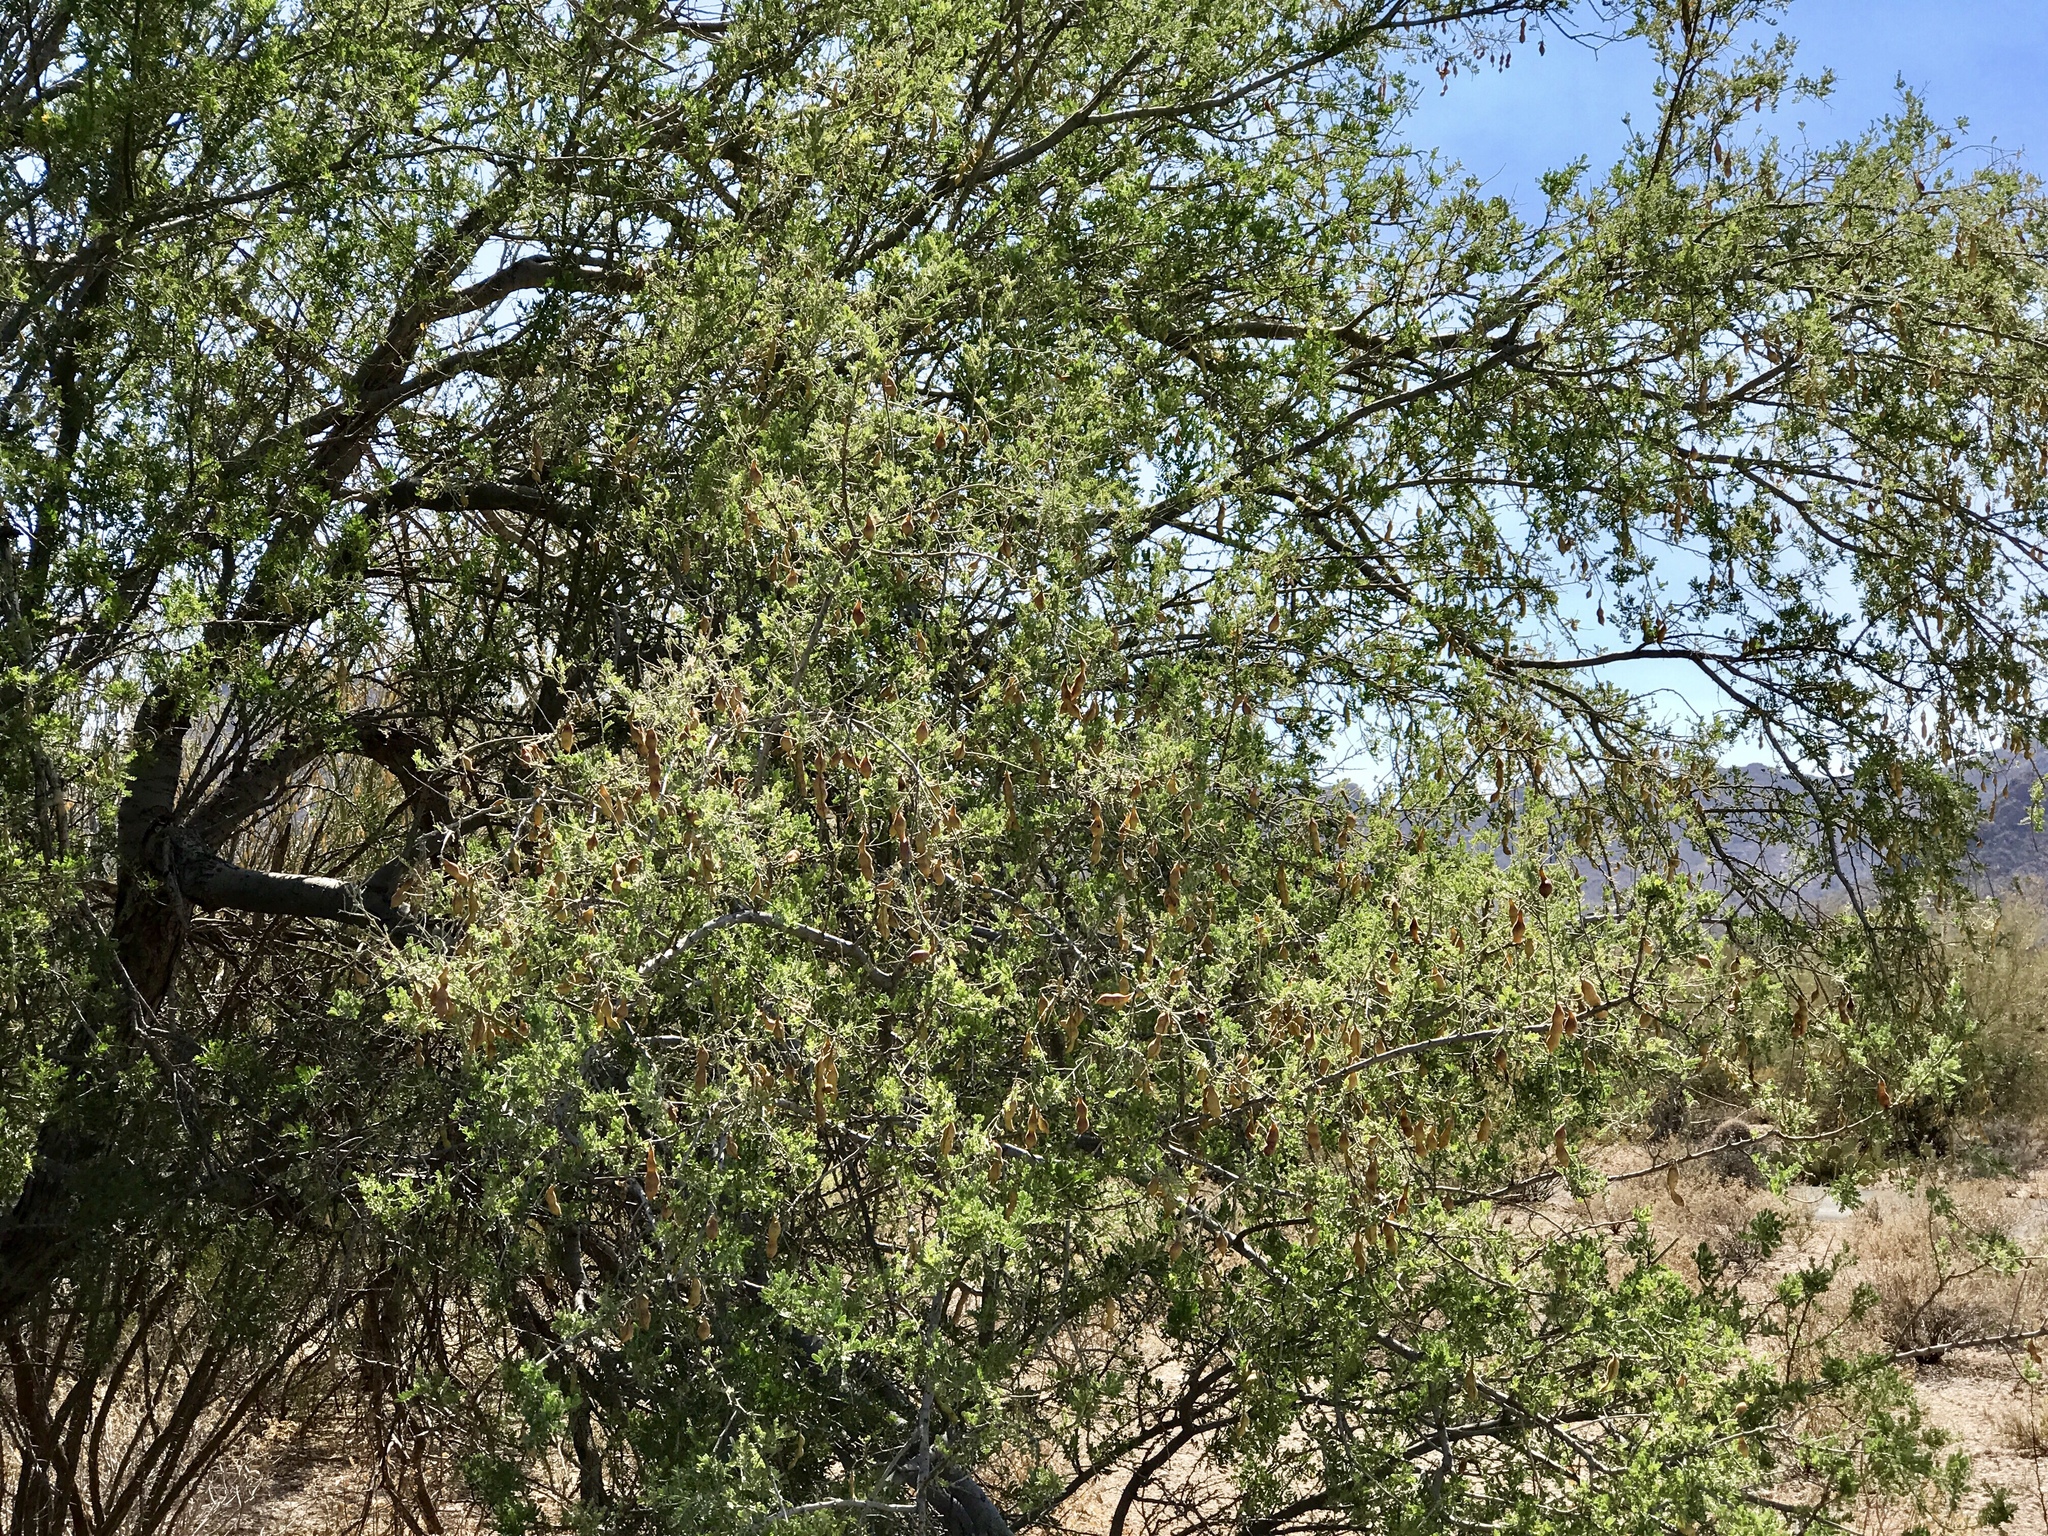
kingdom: Plantae
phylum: Tracheophyta
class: Magnoliopsida
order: Fabales
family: Fabaceae
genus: Olneya
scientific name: Olneya tesota
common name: Desert ironwood
